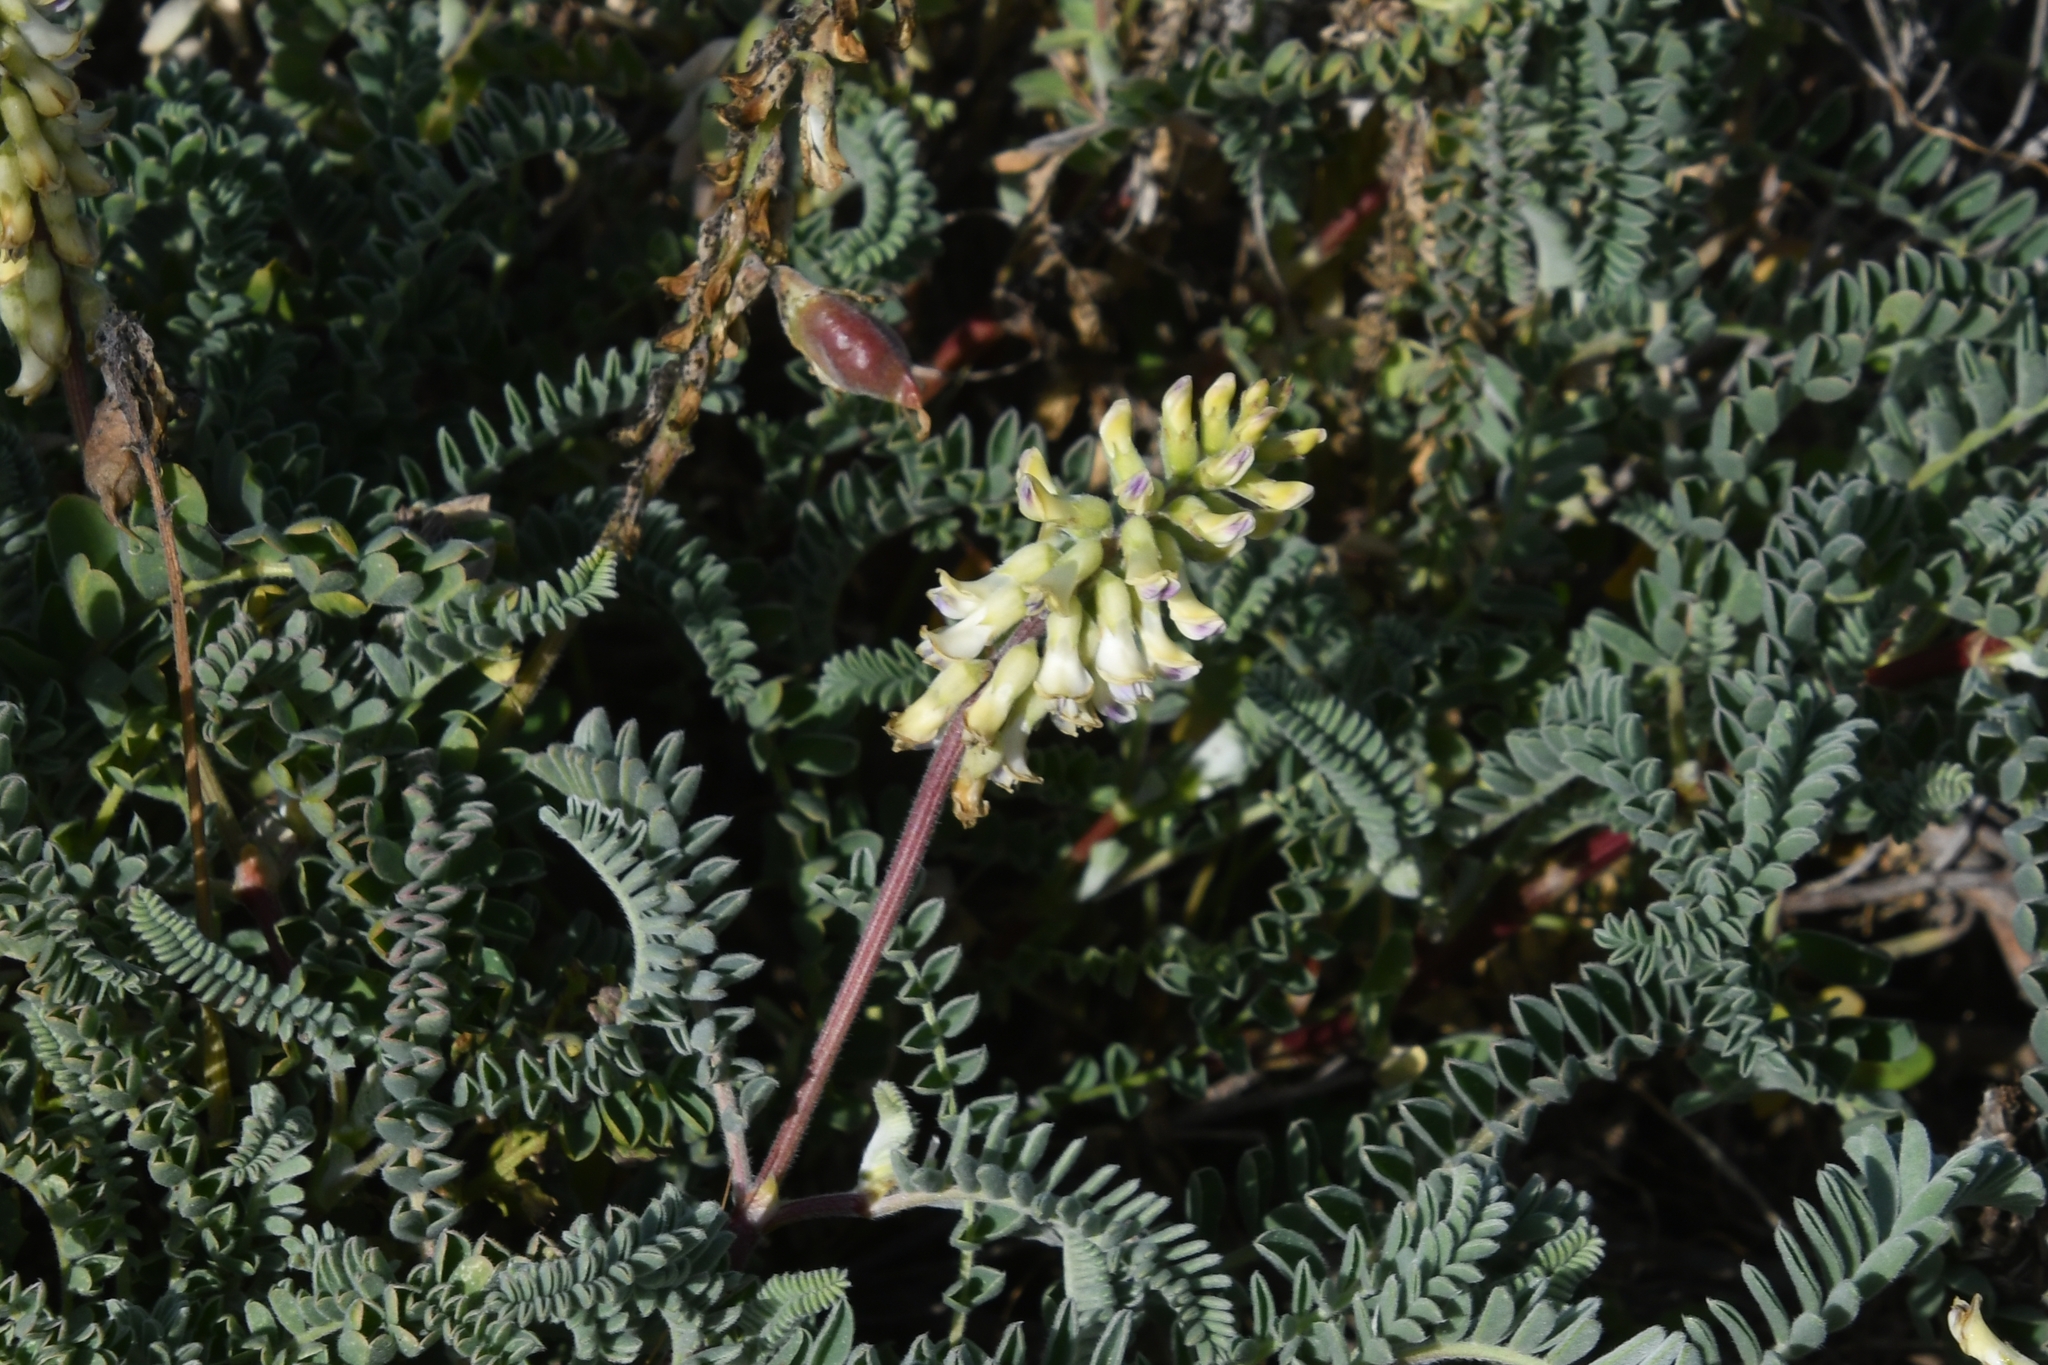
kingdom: Plantae
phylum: Tracheophyta
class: Magnoliopsida
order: Fabales
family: Fabaceae
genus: Astragalus
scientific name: Astragalus nuttallii
